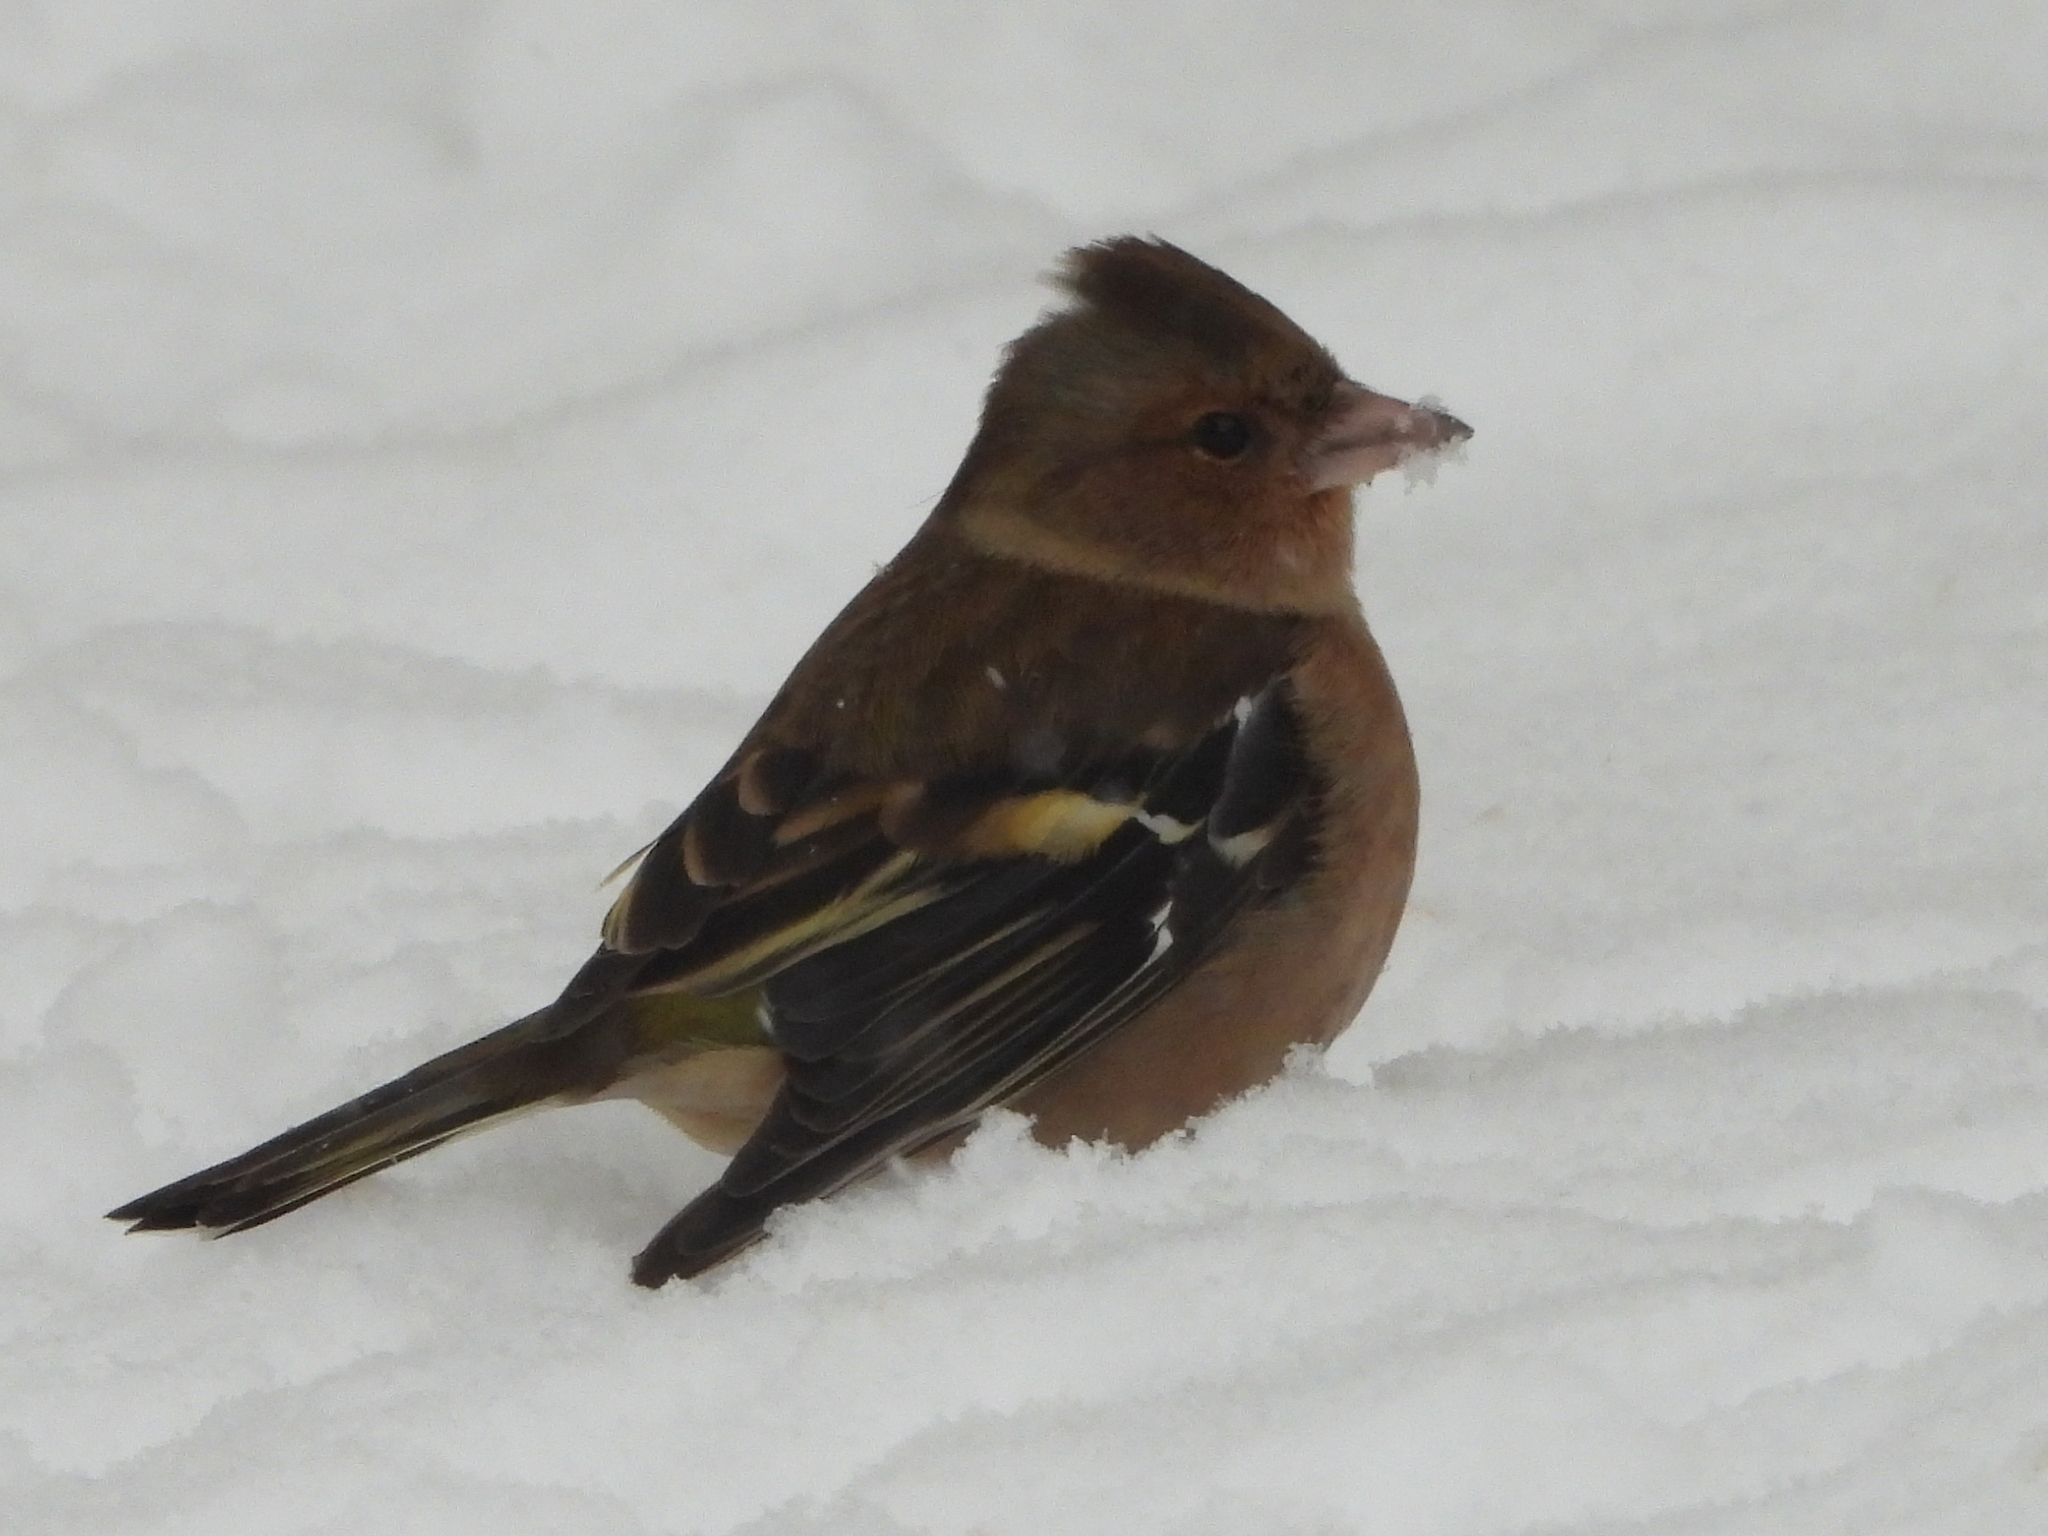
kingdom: Animalia
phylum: Chordata
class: Aves
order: Passeriformes
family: Fringillidae
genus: Fringilla
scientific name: Fringilla coelebs
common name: Common chaffinch
